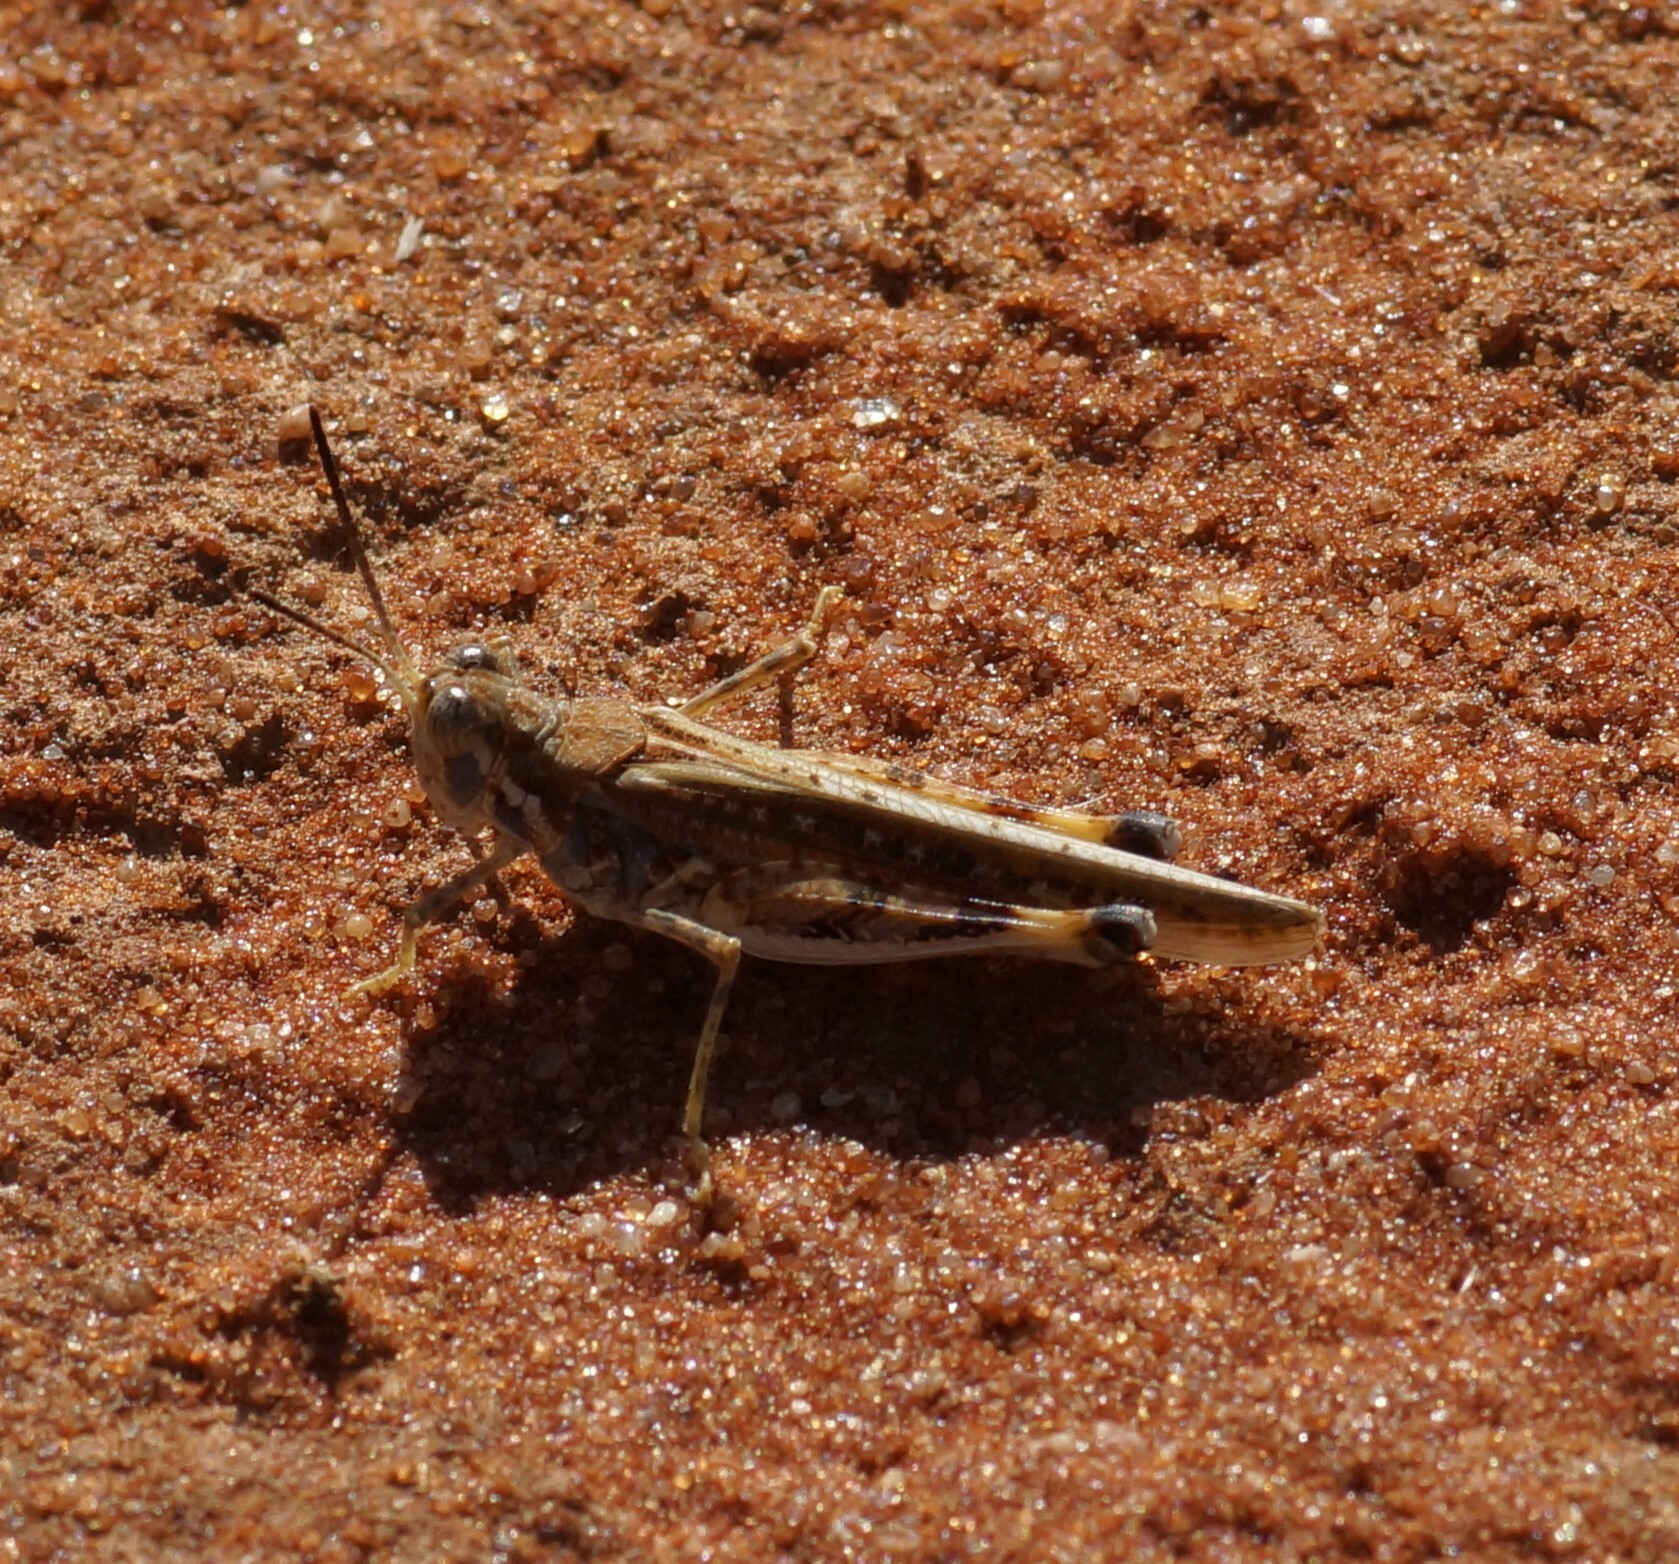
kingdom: Animalia
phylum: Arthropoda
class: Insecta
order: Orthoptera
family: Acrididae
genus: Urnisa
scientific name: Urnisa guttulosa
